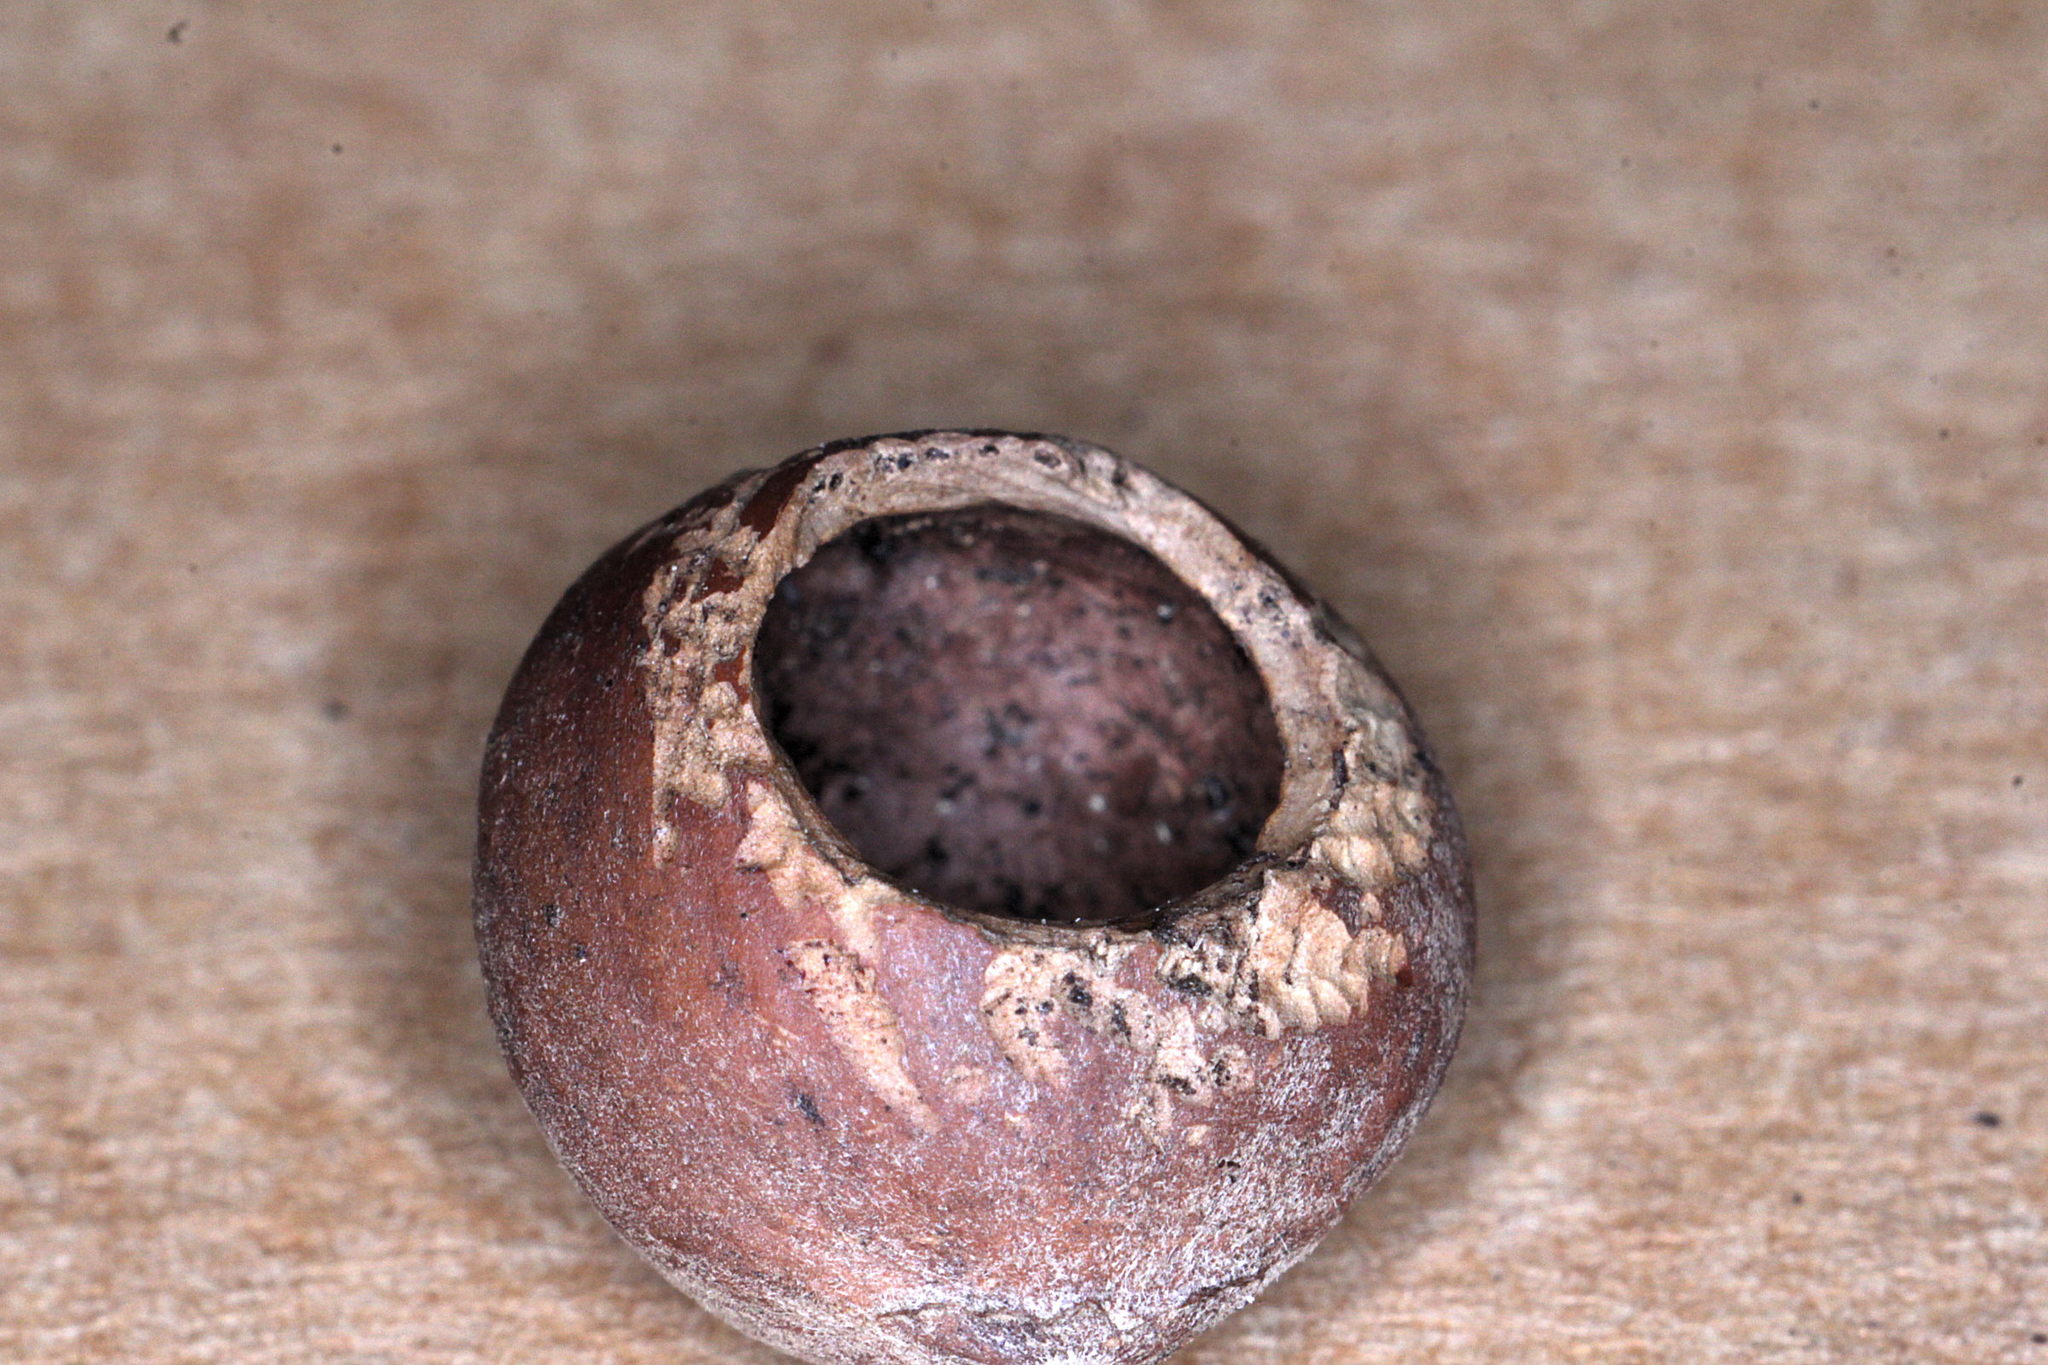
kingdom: Animalia
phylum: Chordata
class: Mammalia
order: Rodentia
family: Gliridae
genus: Muscardinus
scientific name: Muscardinus avellanarius
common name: Hazel dormouse
